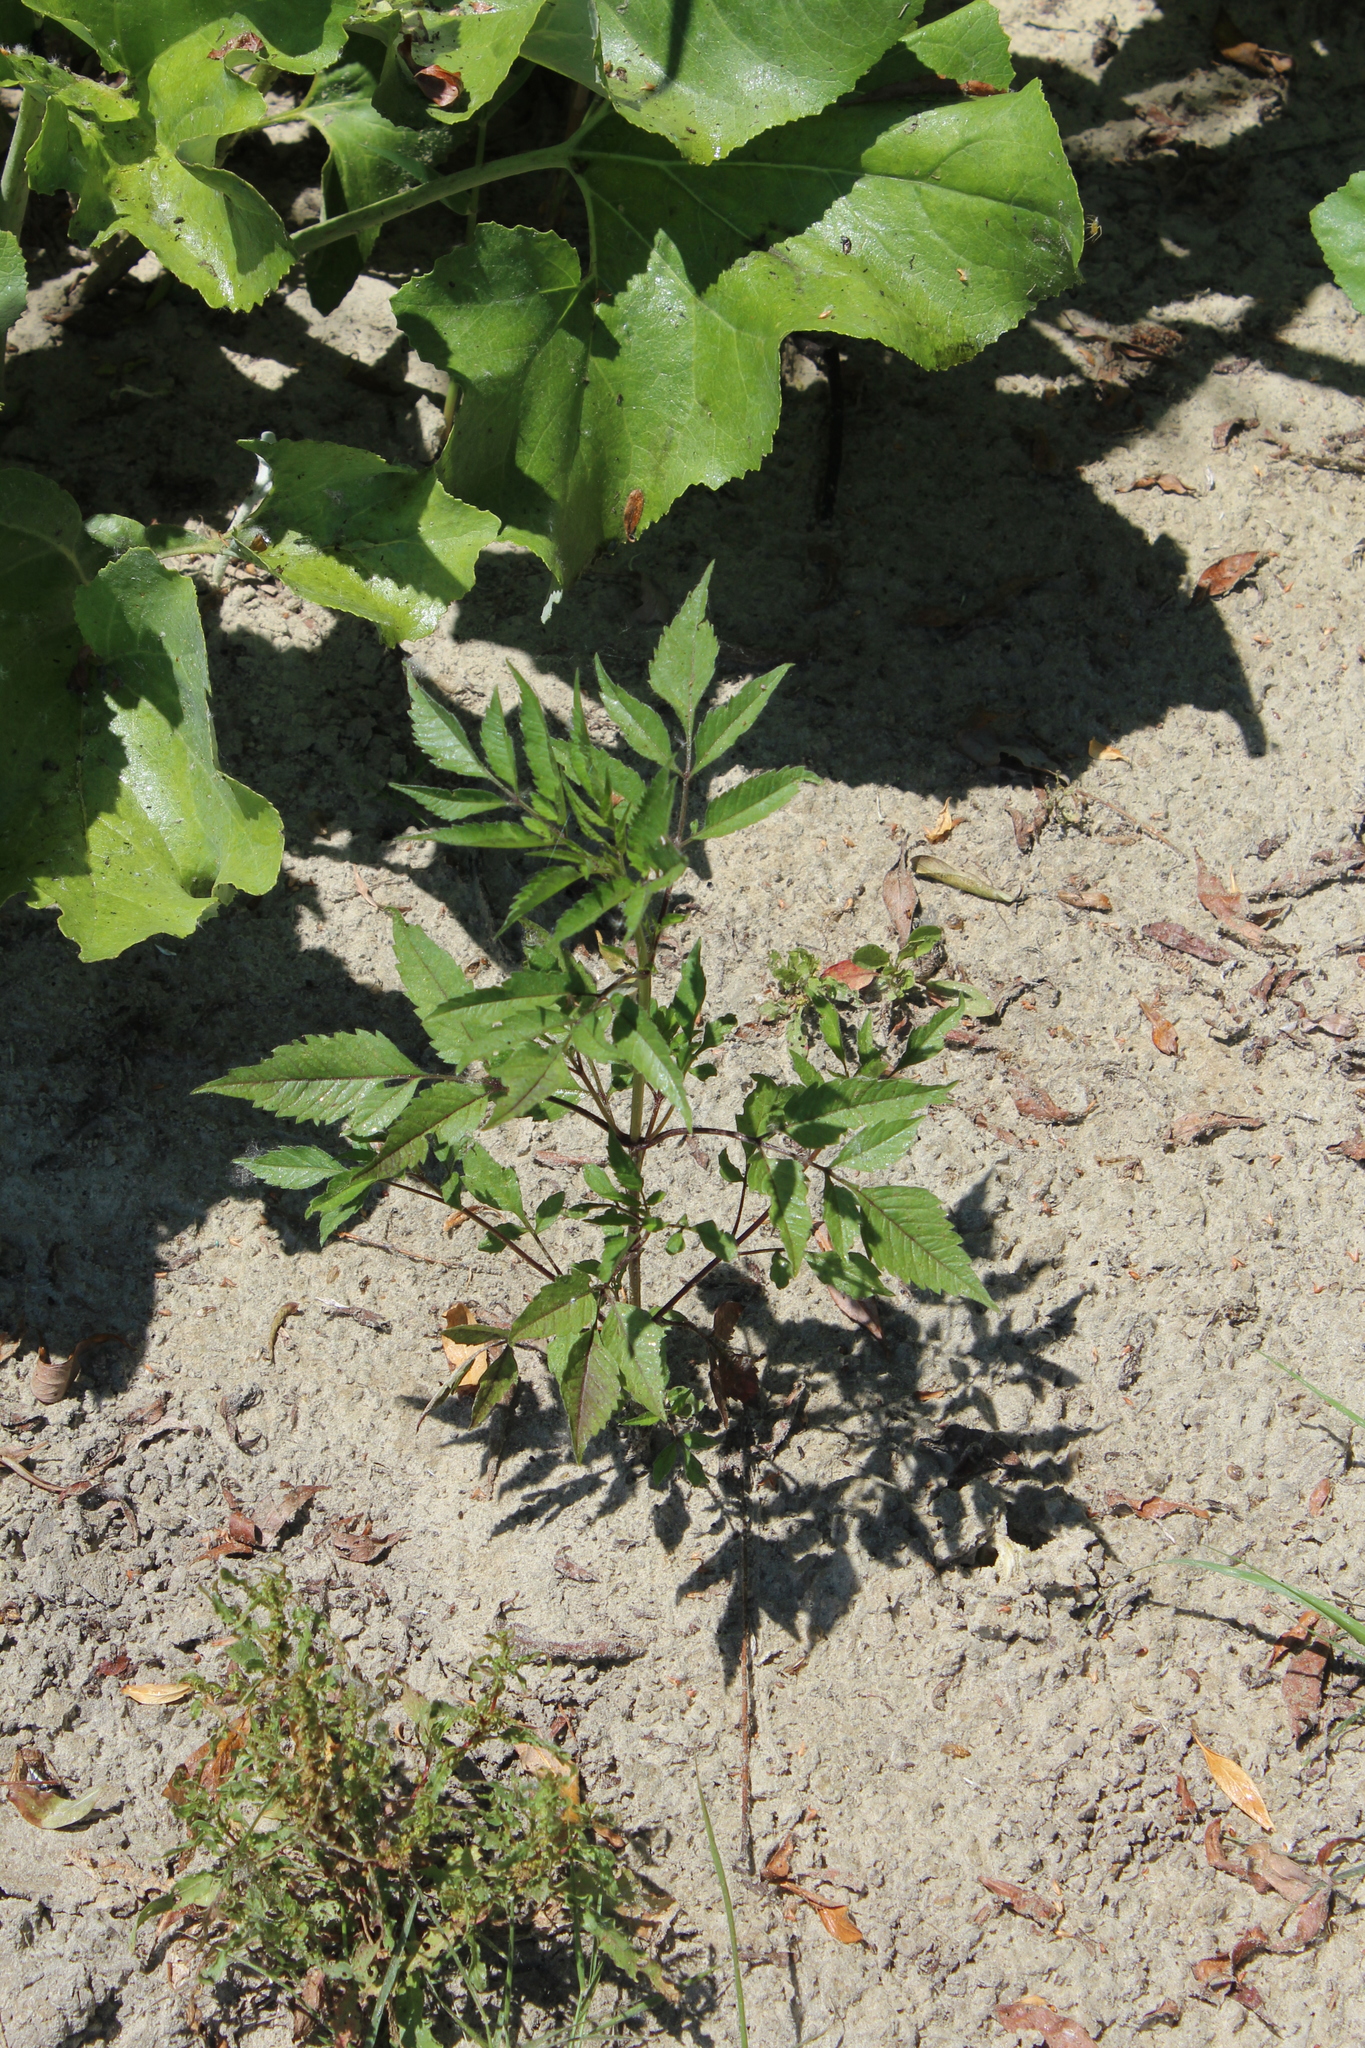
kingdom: Plantae
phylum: Tracheophyta
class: Magnoliopsida
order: Asterales
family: Asteraceae
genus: Bidens
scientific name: Bidens frondosa
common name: Beggarticks
